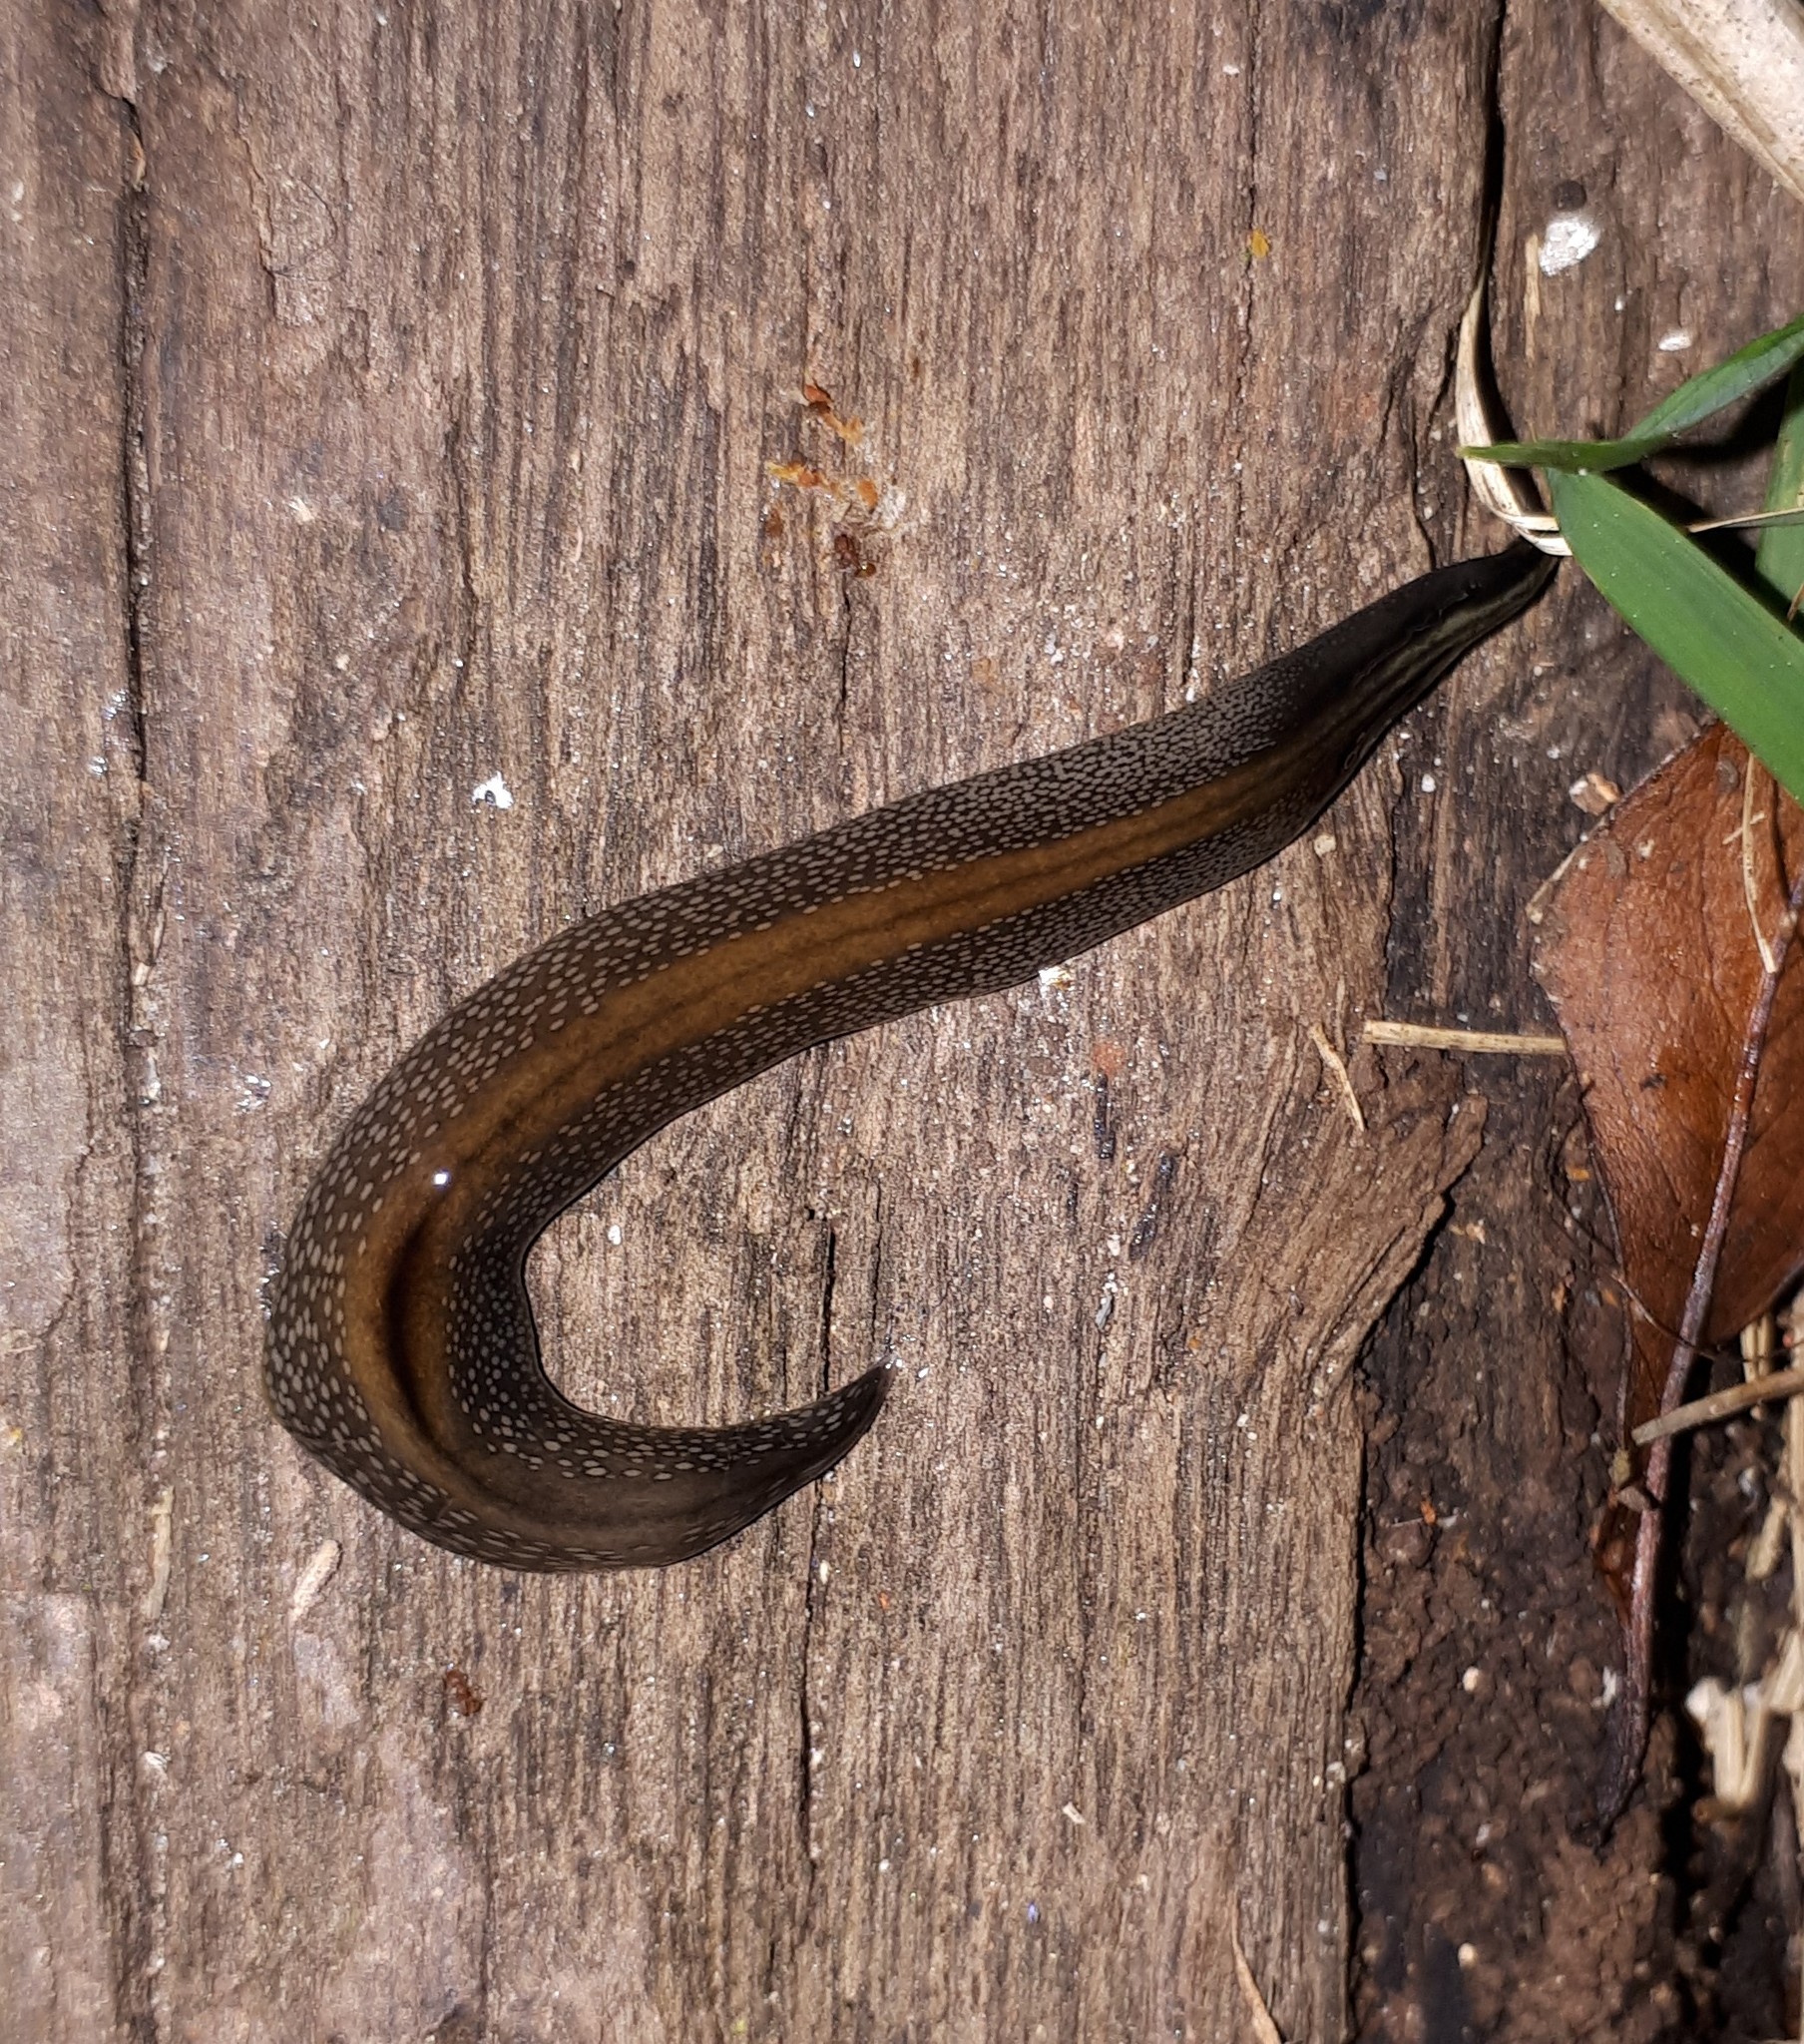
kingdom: Animalia
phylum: Platyhelminthes
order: Tricladida
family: Geoplanidae
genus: Obama
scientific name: Obama burmeisteri
